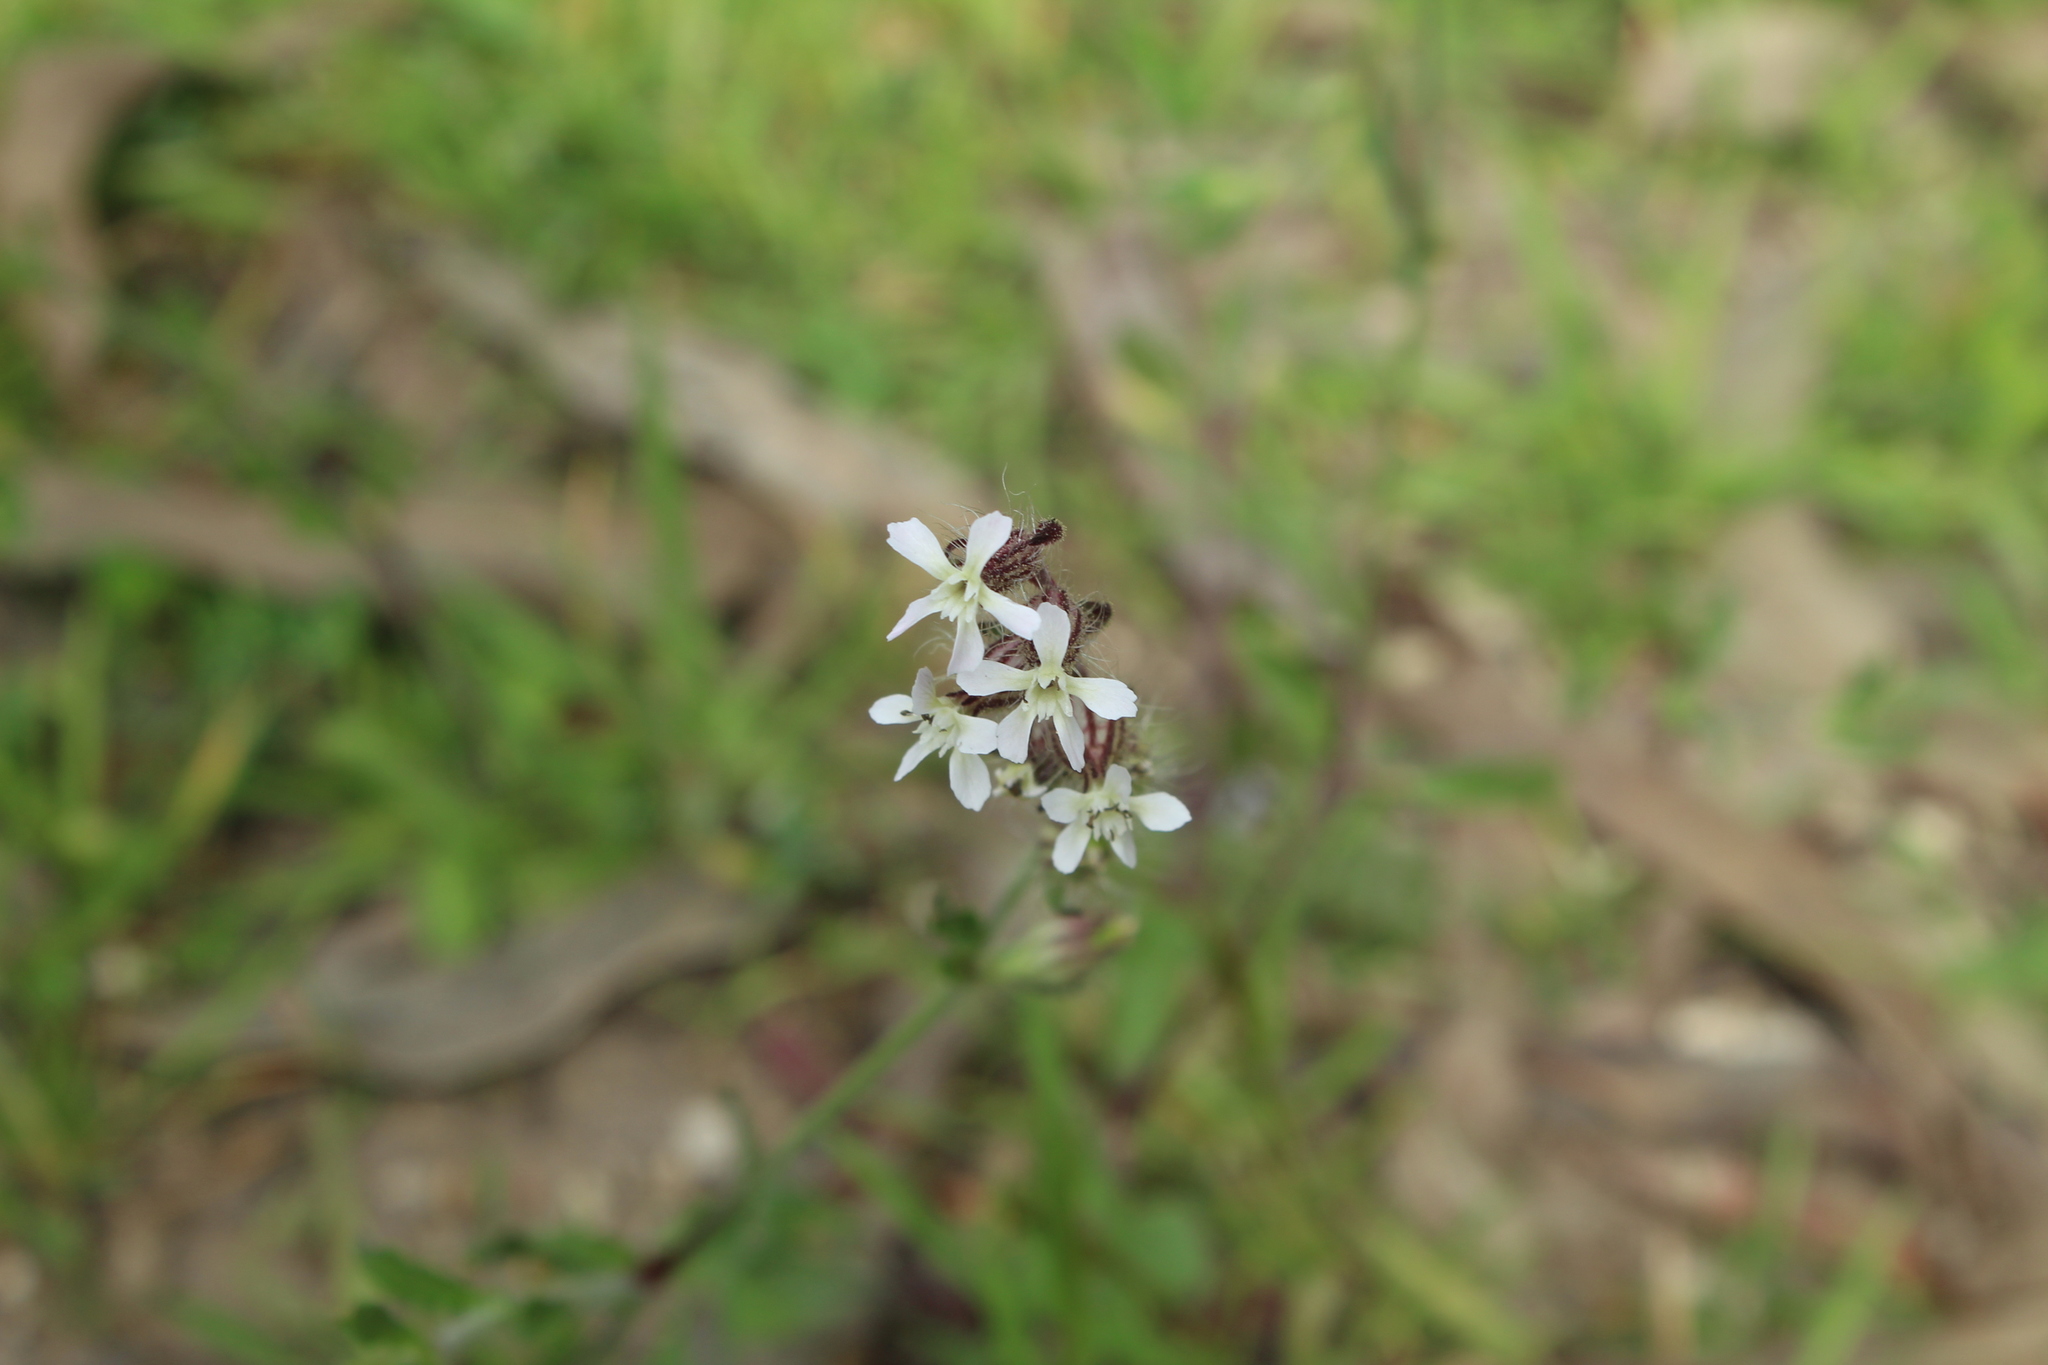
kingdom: Plantae
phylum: Tracheophyta
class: Magnoliopsida
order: Caryophyllales
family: Caryophyllaceae
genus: Silene
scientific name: Silene gallica
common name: Small-flowered catchfly
